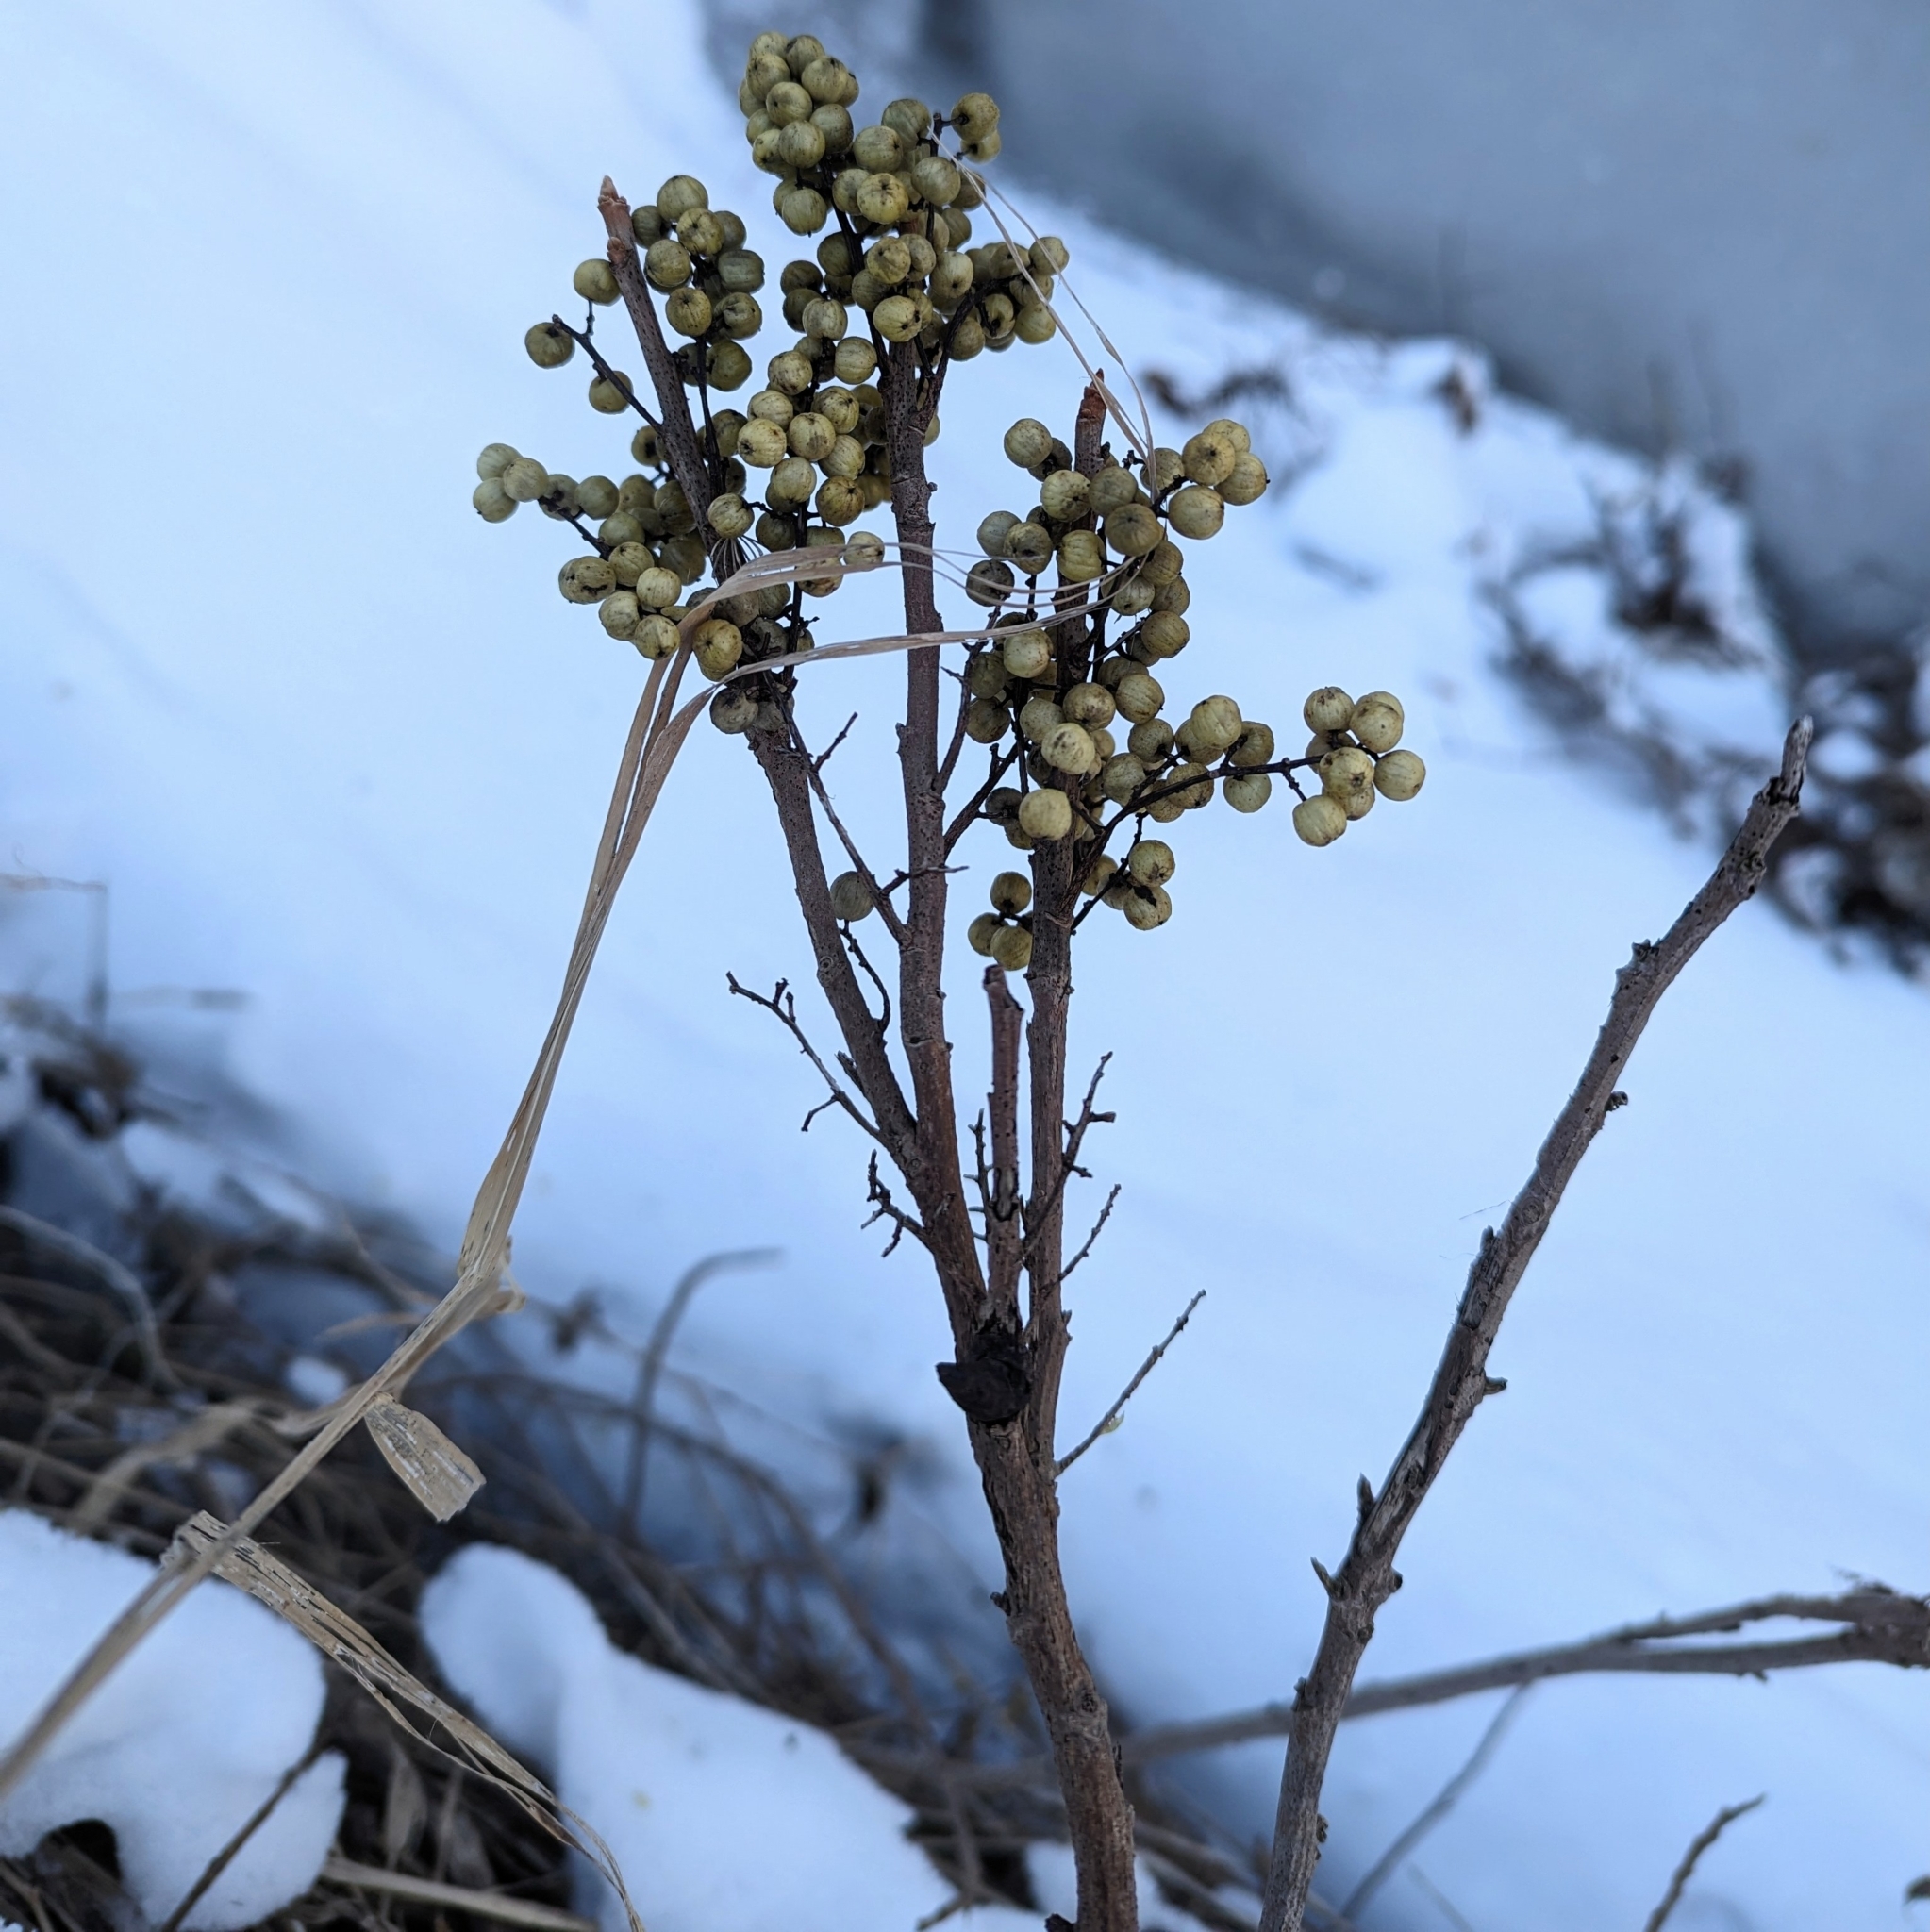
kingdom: Plantae
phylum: Tracheophyta
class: Magnoliopsida
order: Sapindales
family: Anacardiaceae
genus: Toxicodendron
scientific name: Toxicodendron rydbergii
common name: Rydberg's poison-ivy
